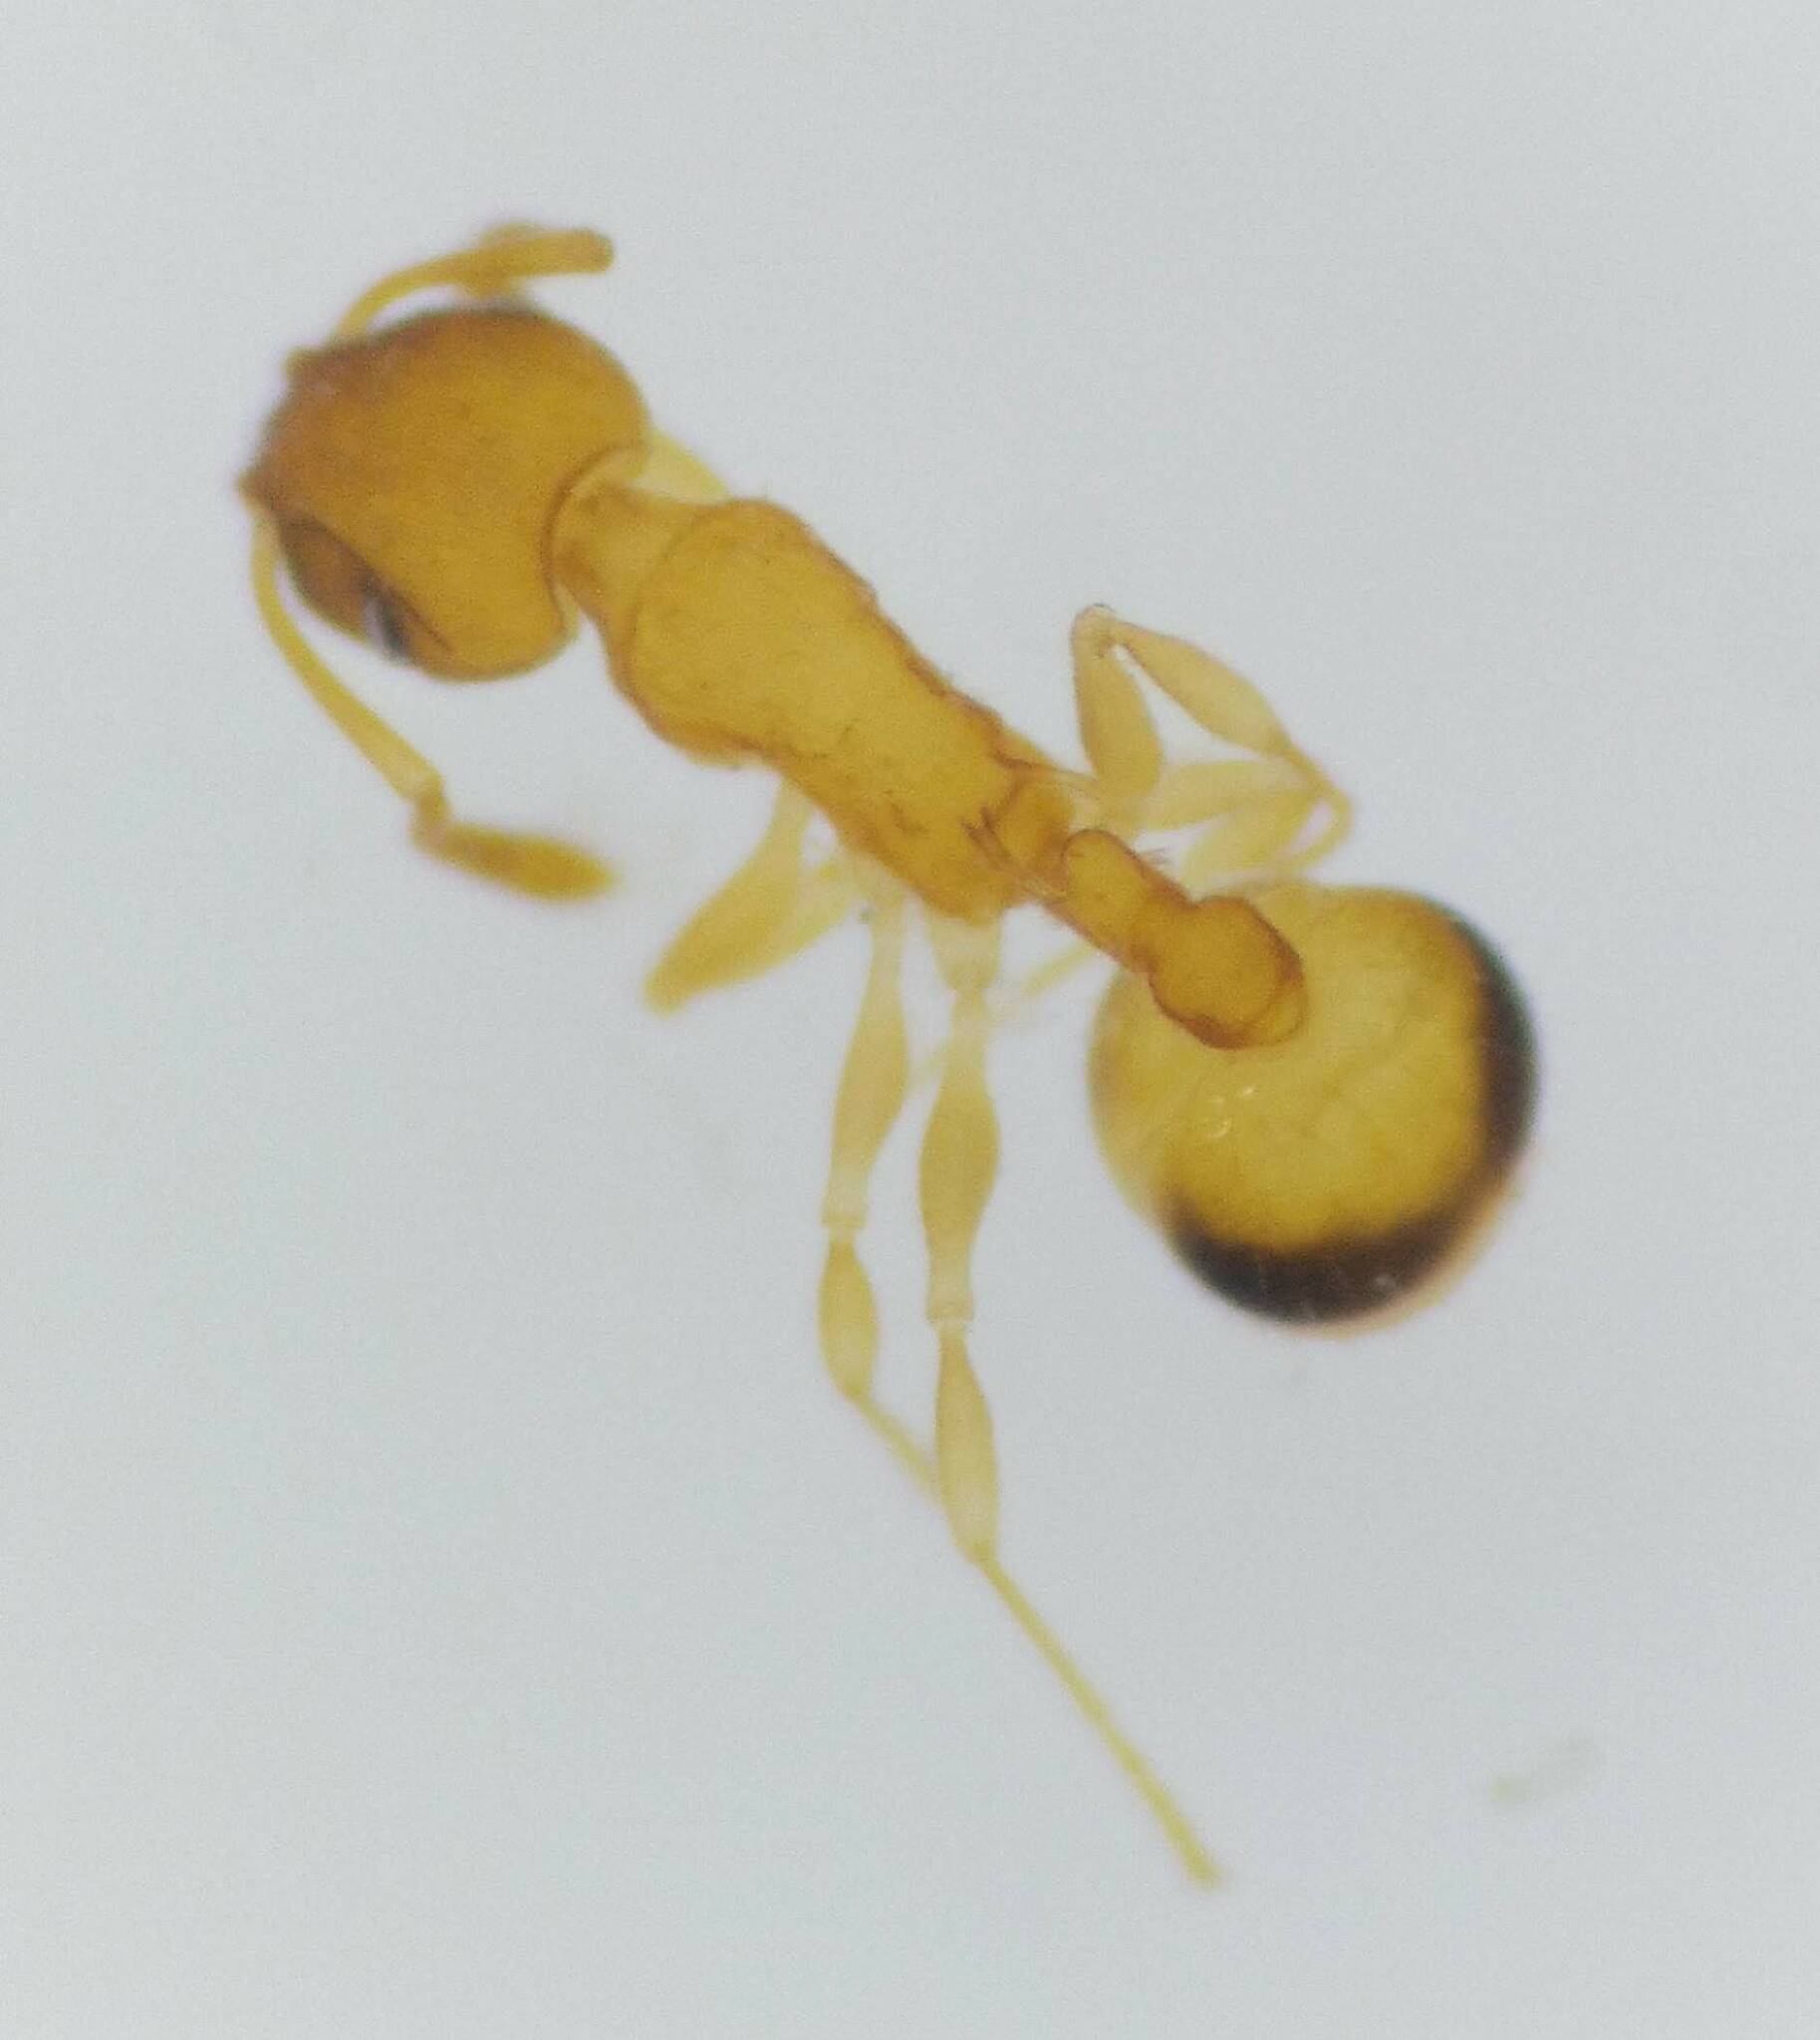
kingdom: Animalia
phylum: Arthropoda
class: Insecta
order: Hymenoptera
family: Formicidae
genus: Temnothorax
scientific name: Temnothorax curvispinosus
